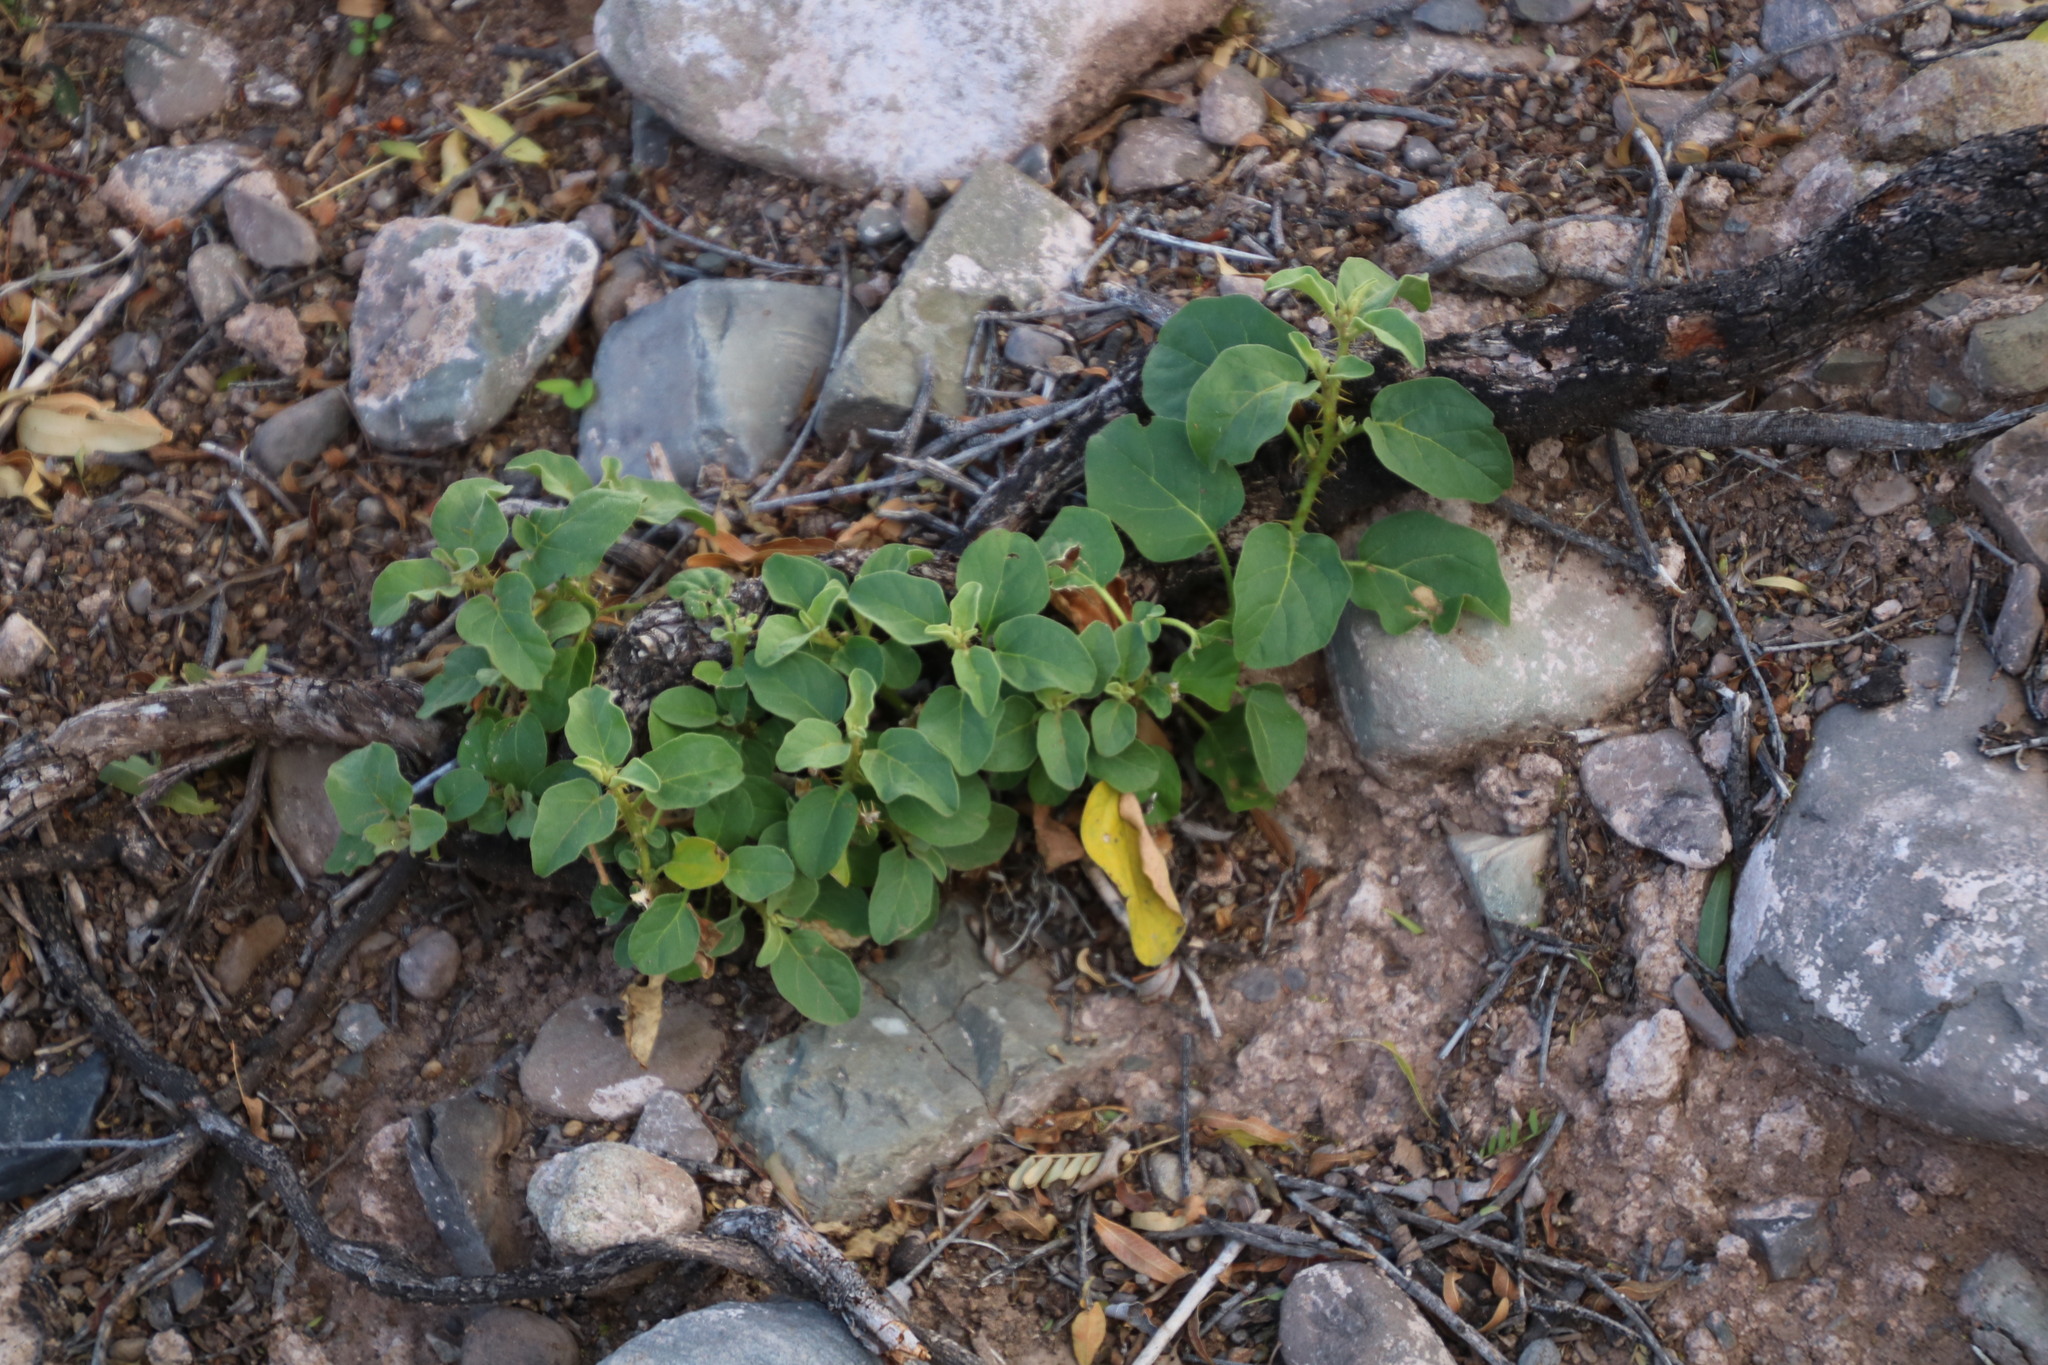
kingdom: Plantae
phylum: Tracheophyta
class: Magnoliopsida
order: Solanales
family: Solanaceae
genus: Solanum
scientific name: Solanum tomentosum
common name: Wild aubergine
